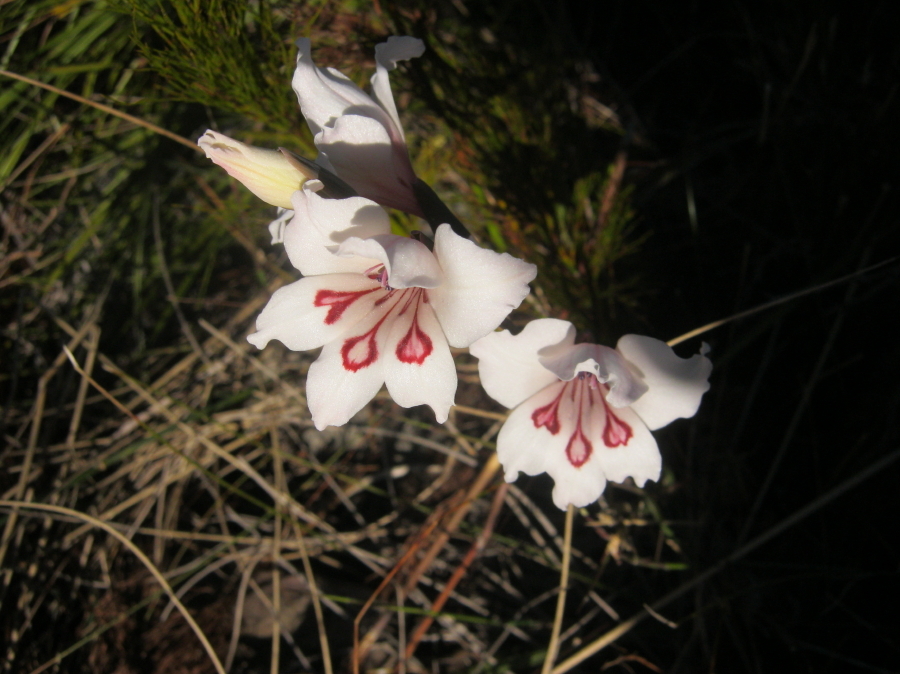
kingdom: Plantae
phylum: Tracheophyta
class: Liliopsida
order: Asparagales
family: Iridaceae
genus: Gladiolus
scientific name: Gladiolus carneus
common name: Painted-lady
